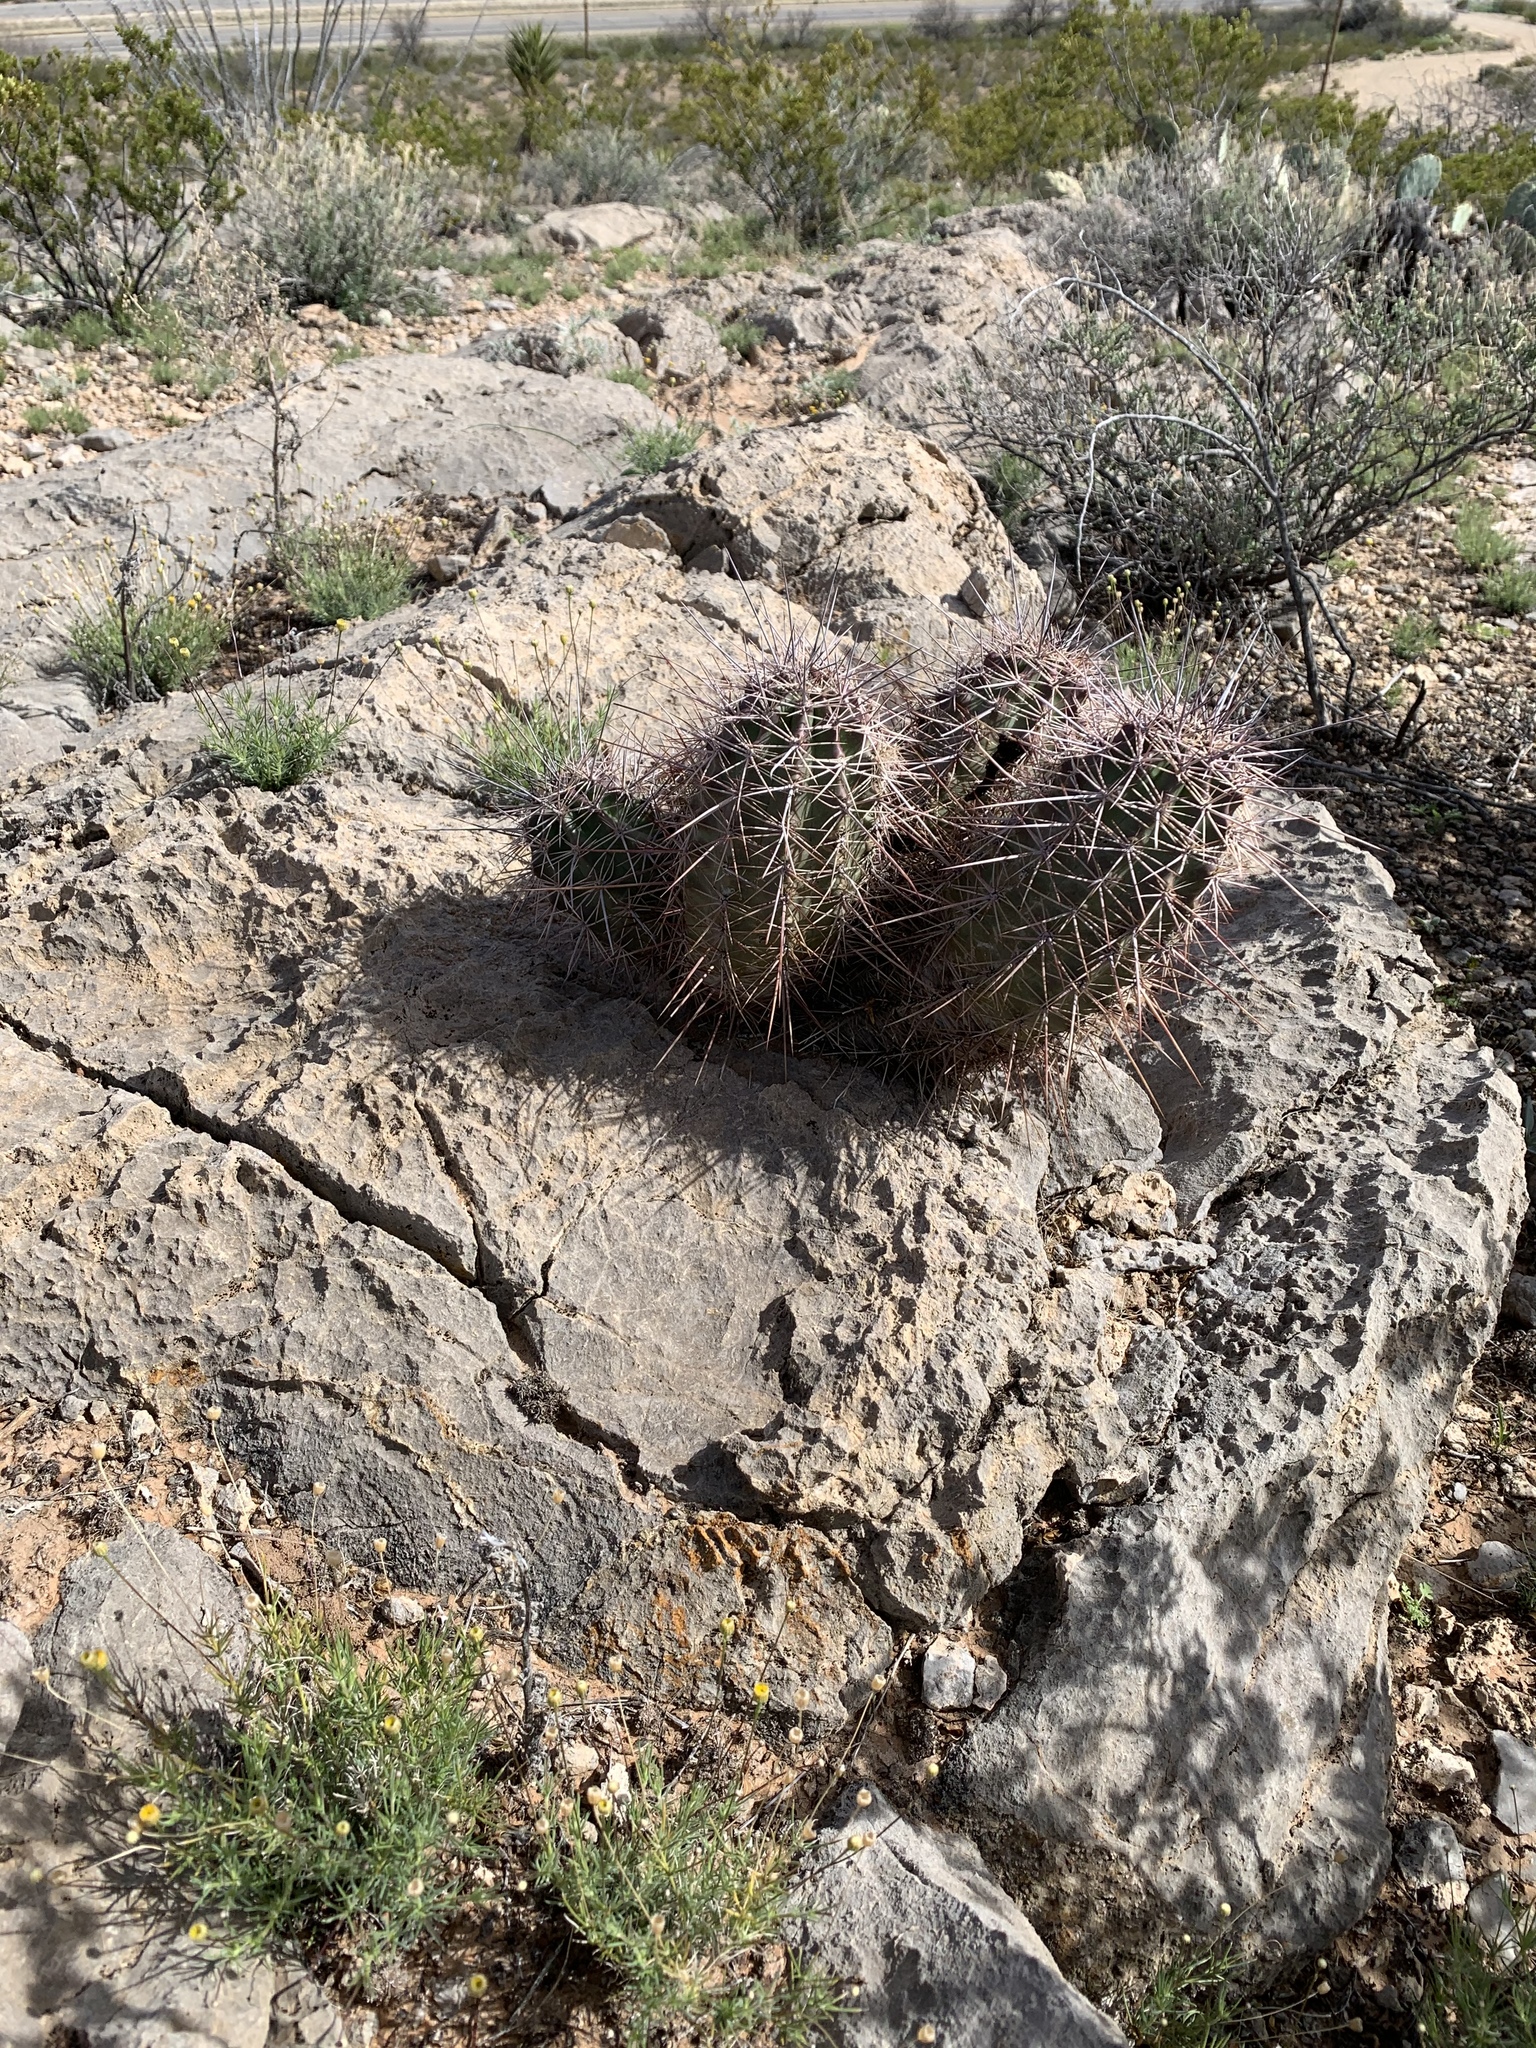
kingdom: Plantae
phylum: Tracheophyta
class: Magnoliopsida
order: Caryophyllales
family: Cactaceae
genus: Echinocereus
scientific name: Echinocereus coccineus
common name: Scarlet hedgehog cactus
